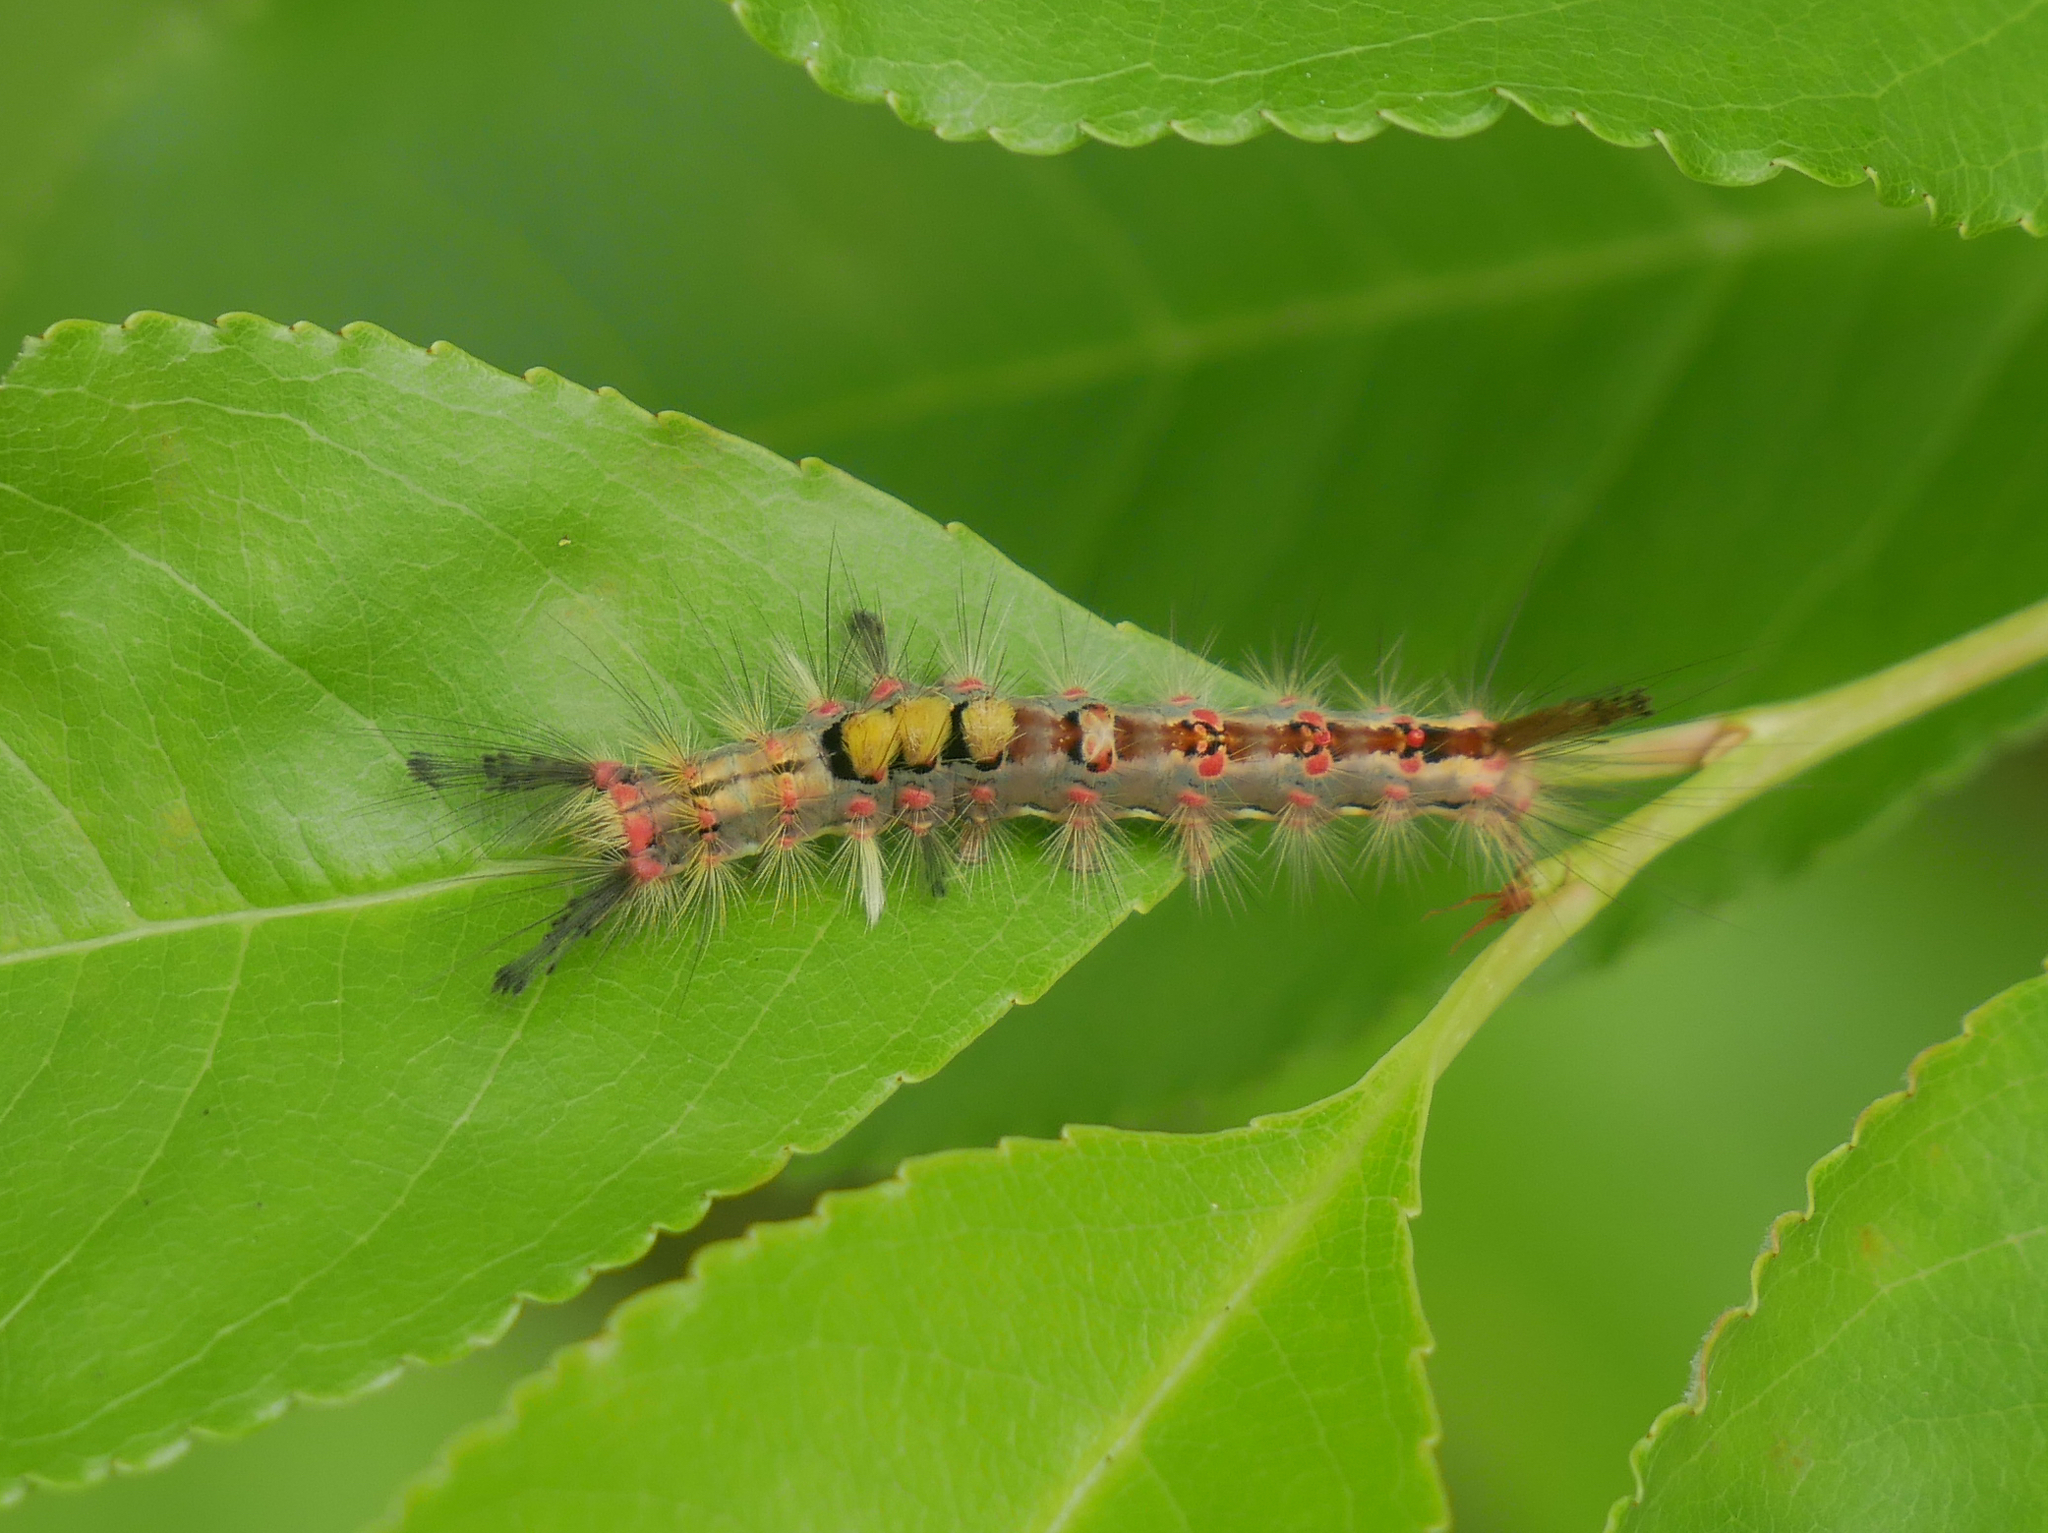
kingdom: Animalia
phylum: Arthropoda
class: Insecta
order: Lepidoptera
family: Erebidae
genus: Orgyia
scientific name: Orgyia antiqua
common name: Vapourer
